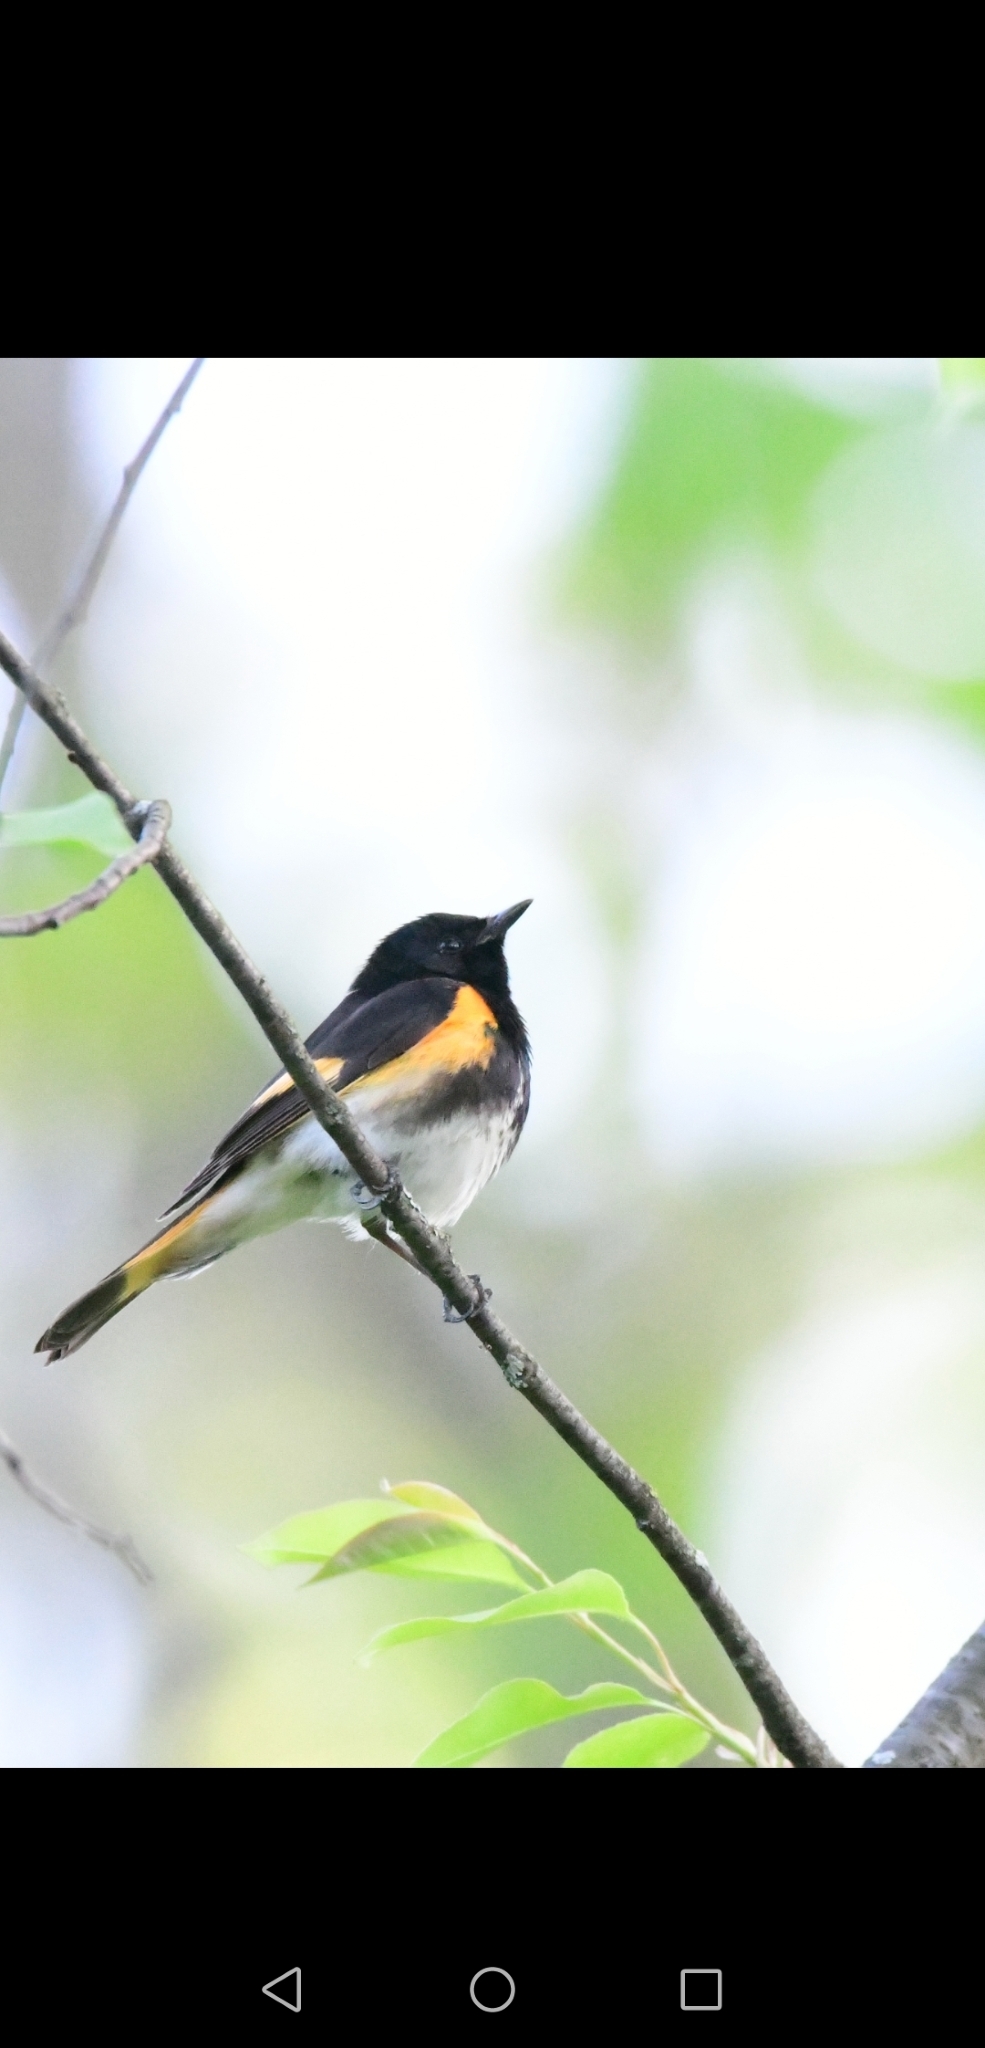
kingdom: Animalia
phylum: Chordata
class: Aves
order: Passeriformes
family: Parulidae
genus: Setophaga
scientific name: Setophaga ruticilla
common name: American redstart
